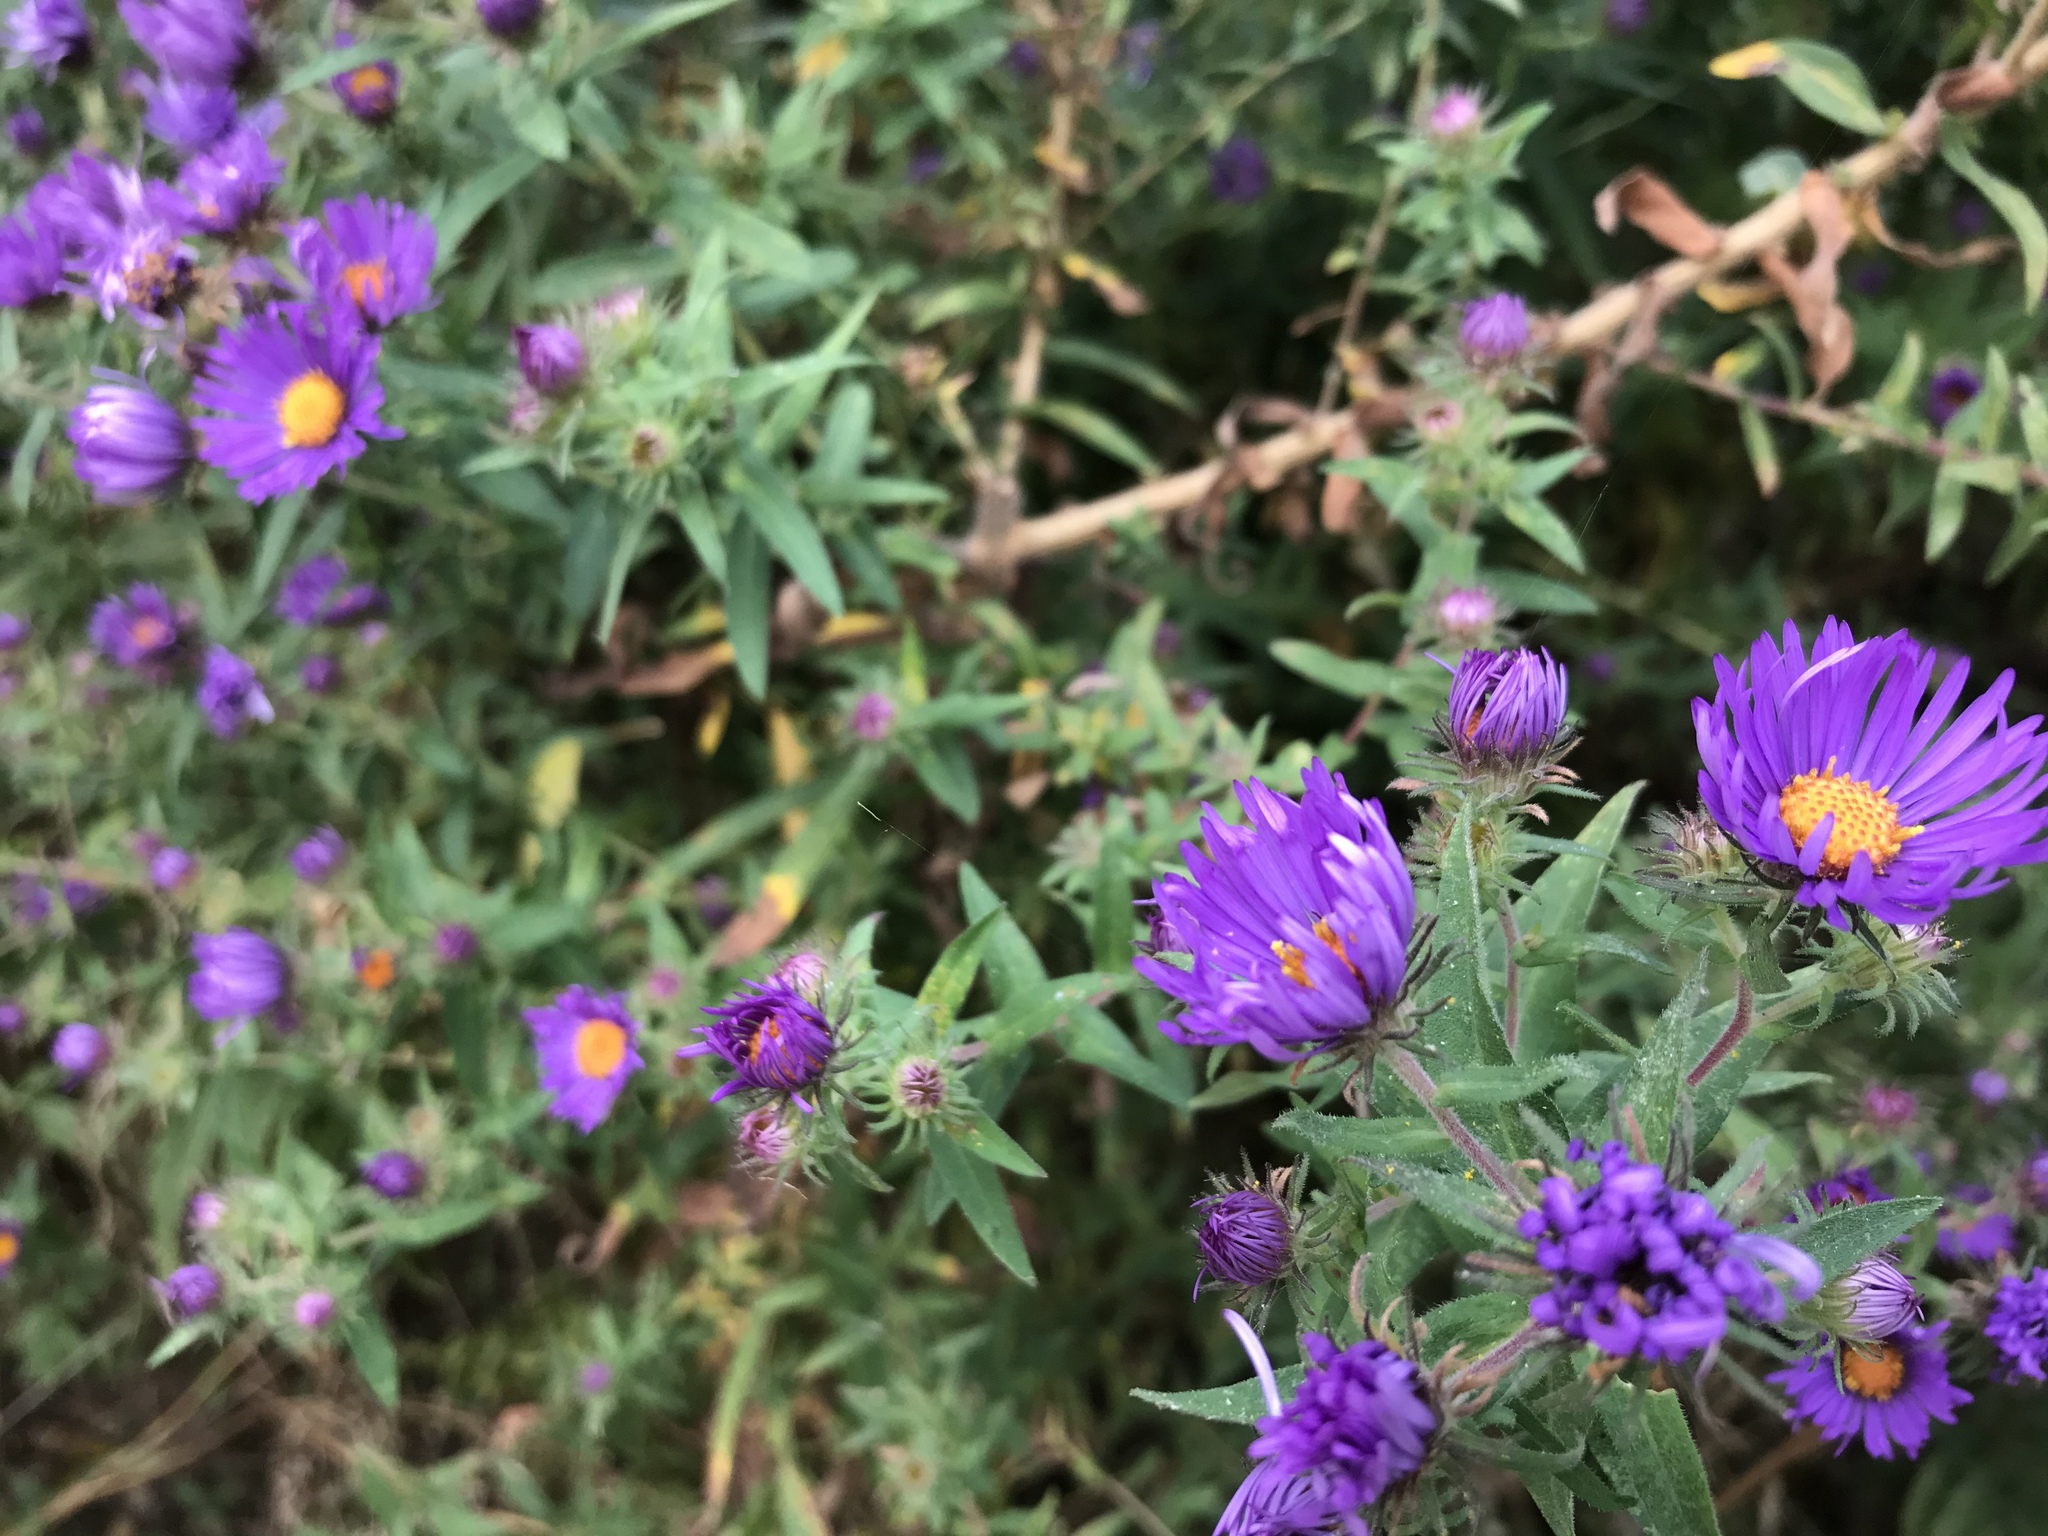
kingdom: Plantae
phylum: Tracheophyta
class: Magnoliopsida
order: Asterales
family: Asteraceae
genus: Symphyotrichum
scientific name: Symphyotrichum novae-angliae
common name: Michaelmas daisy
